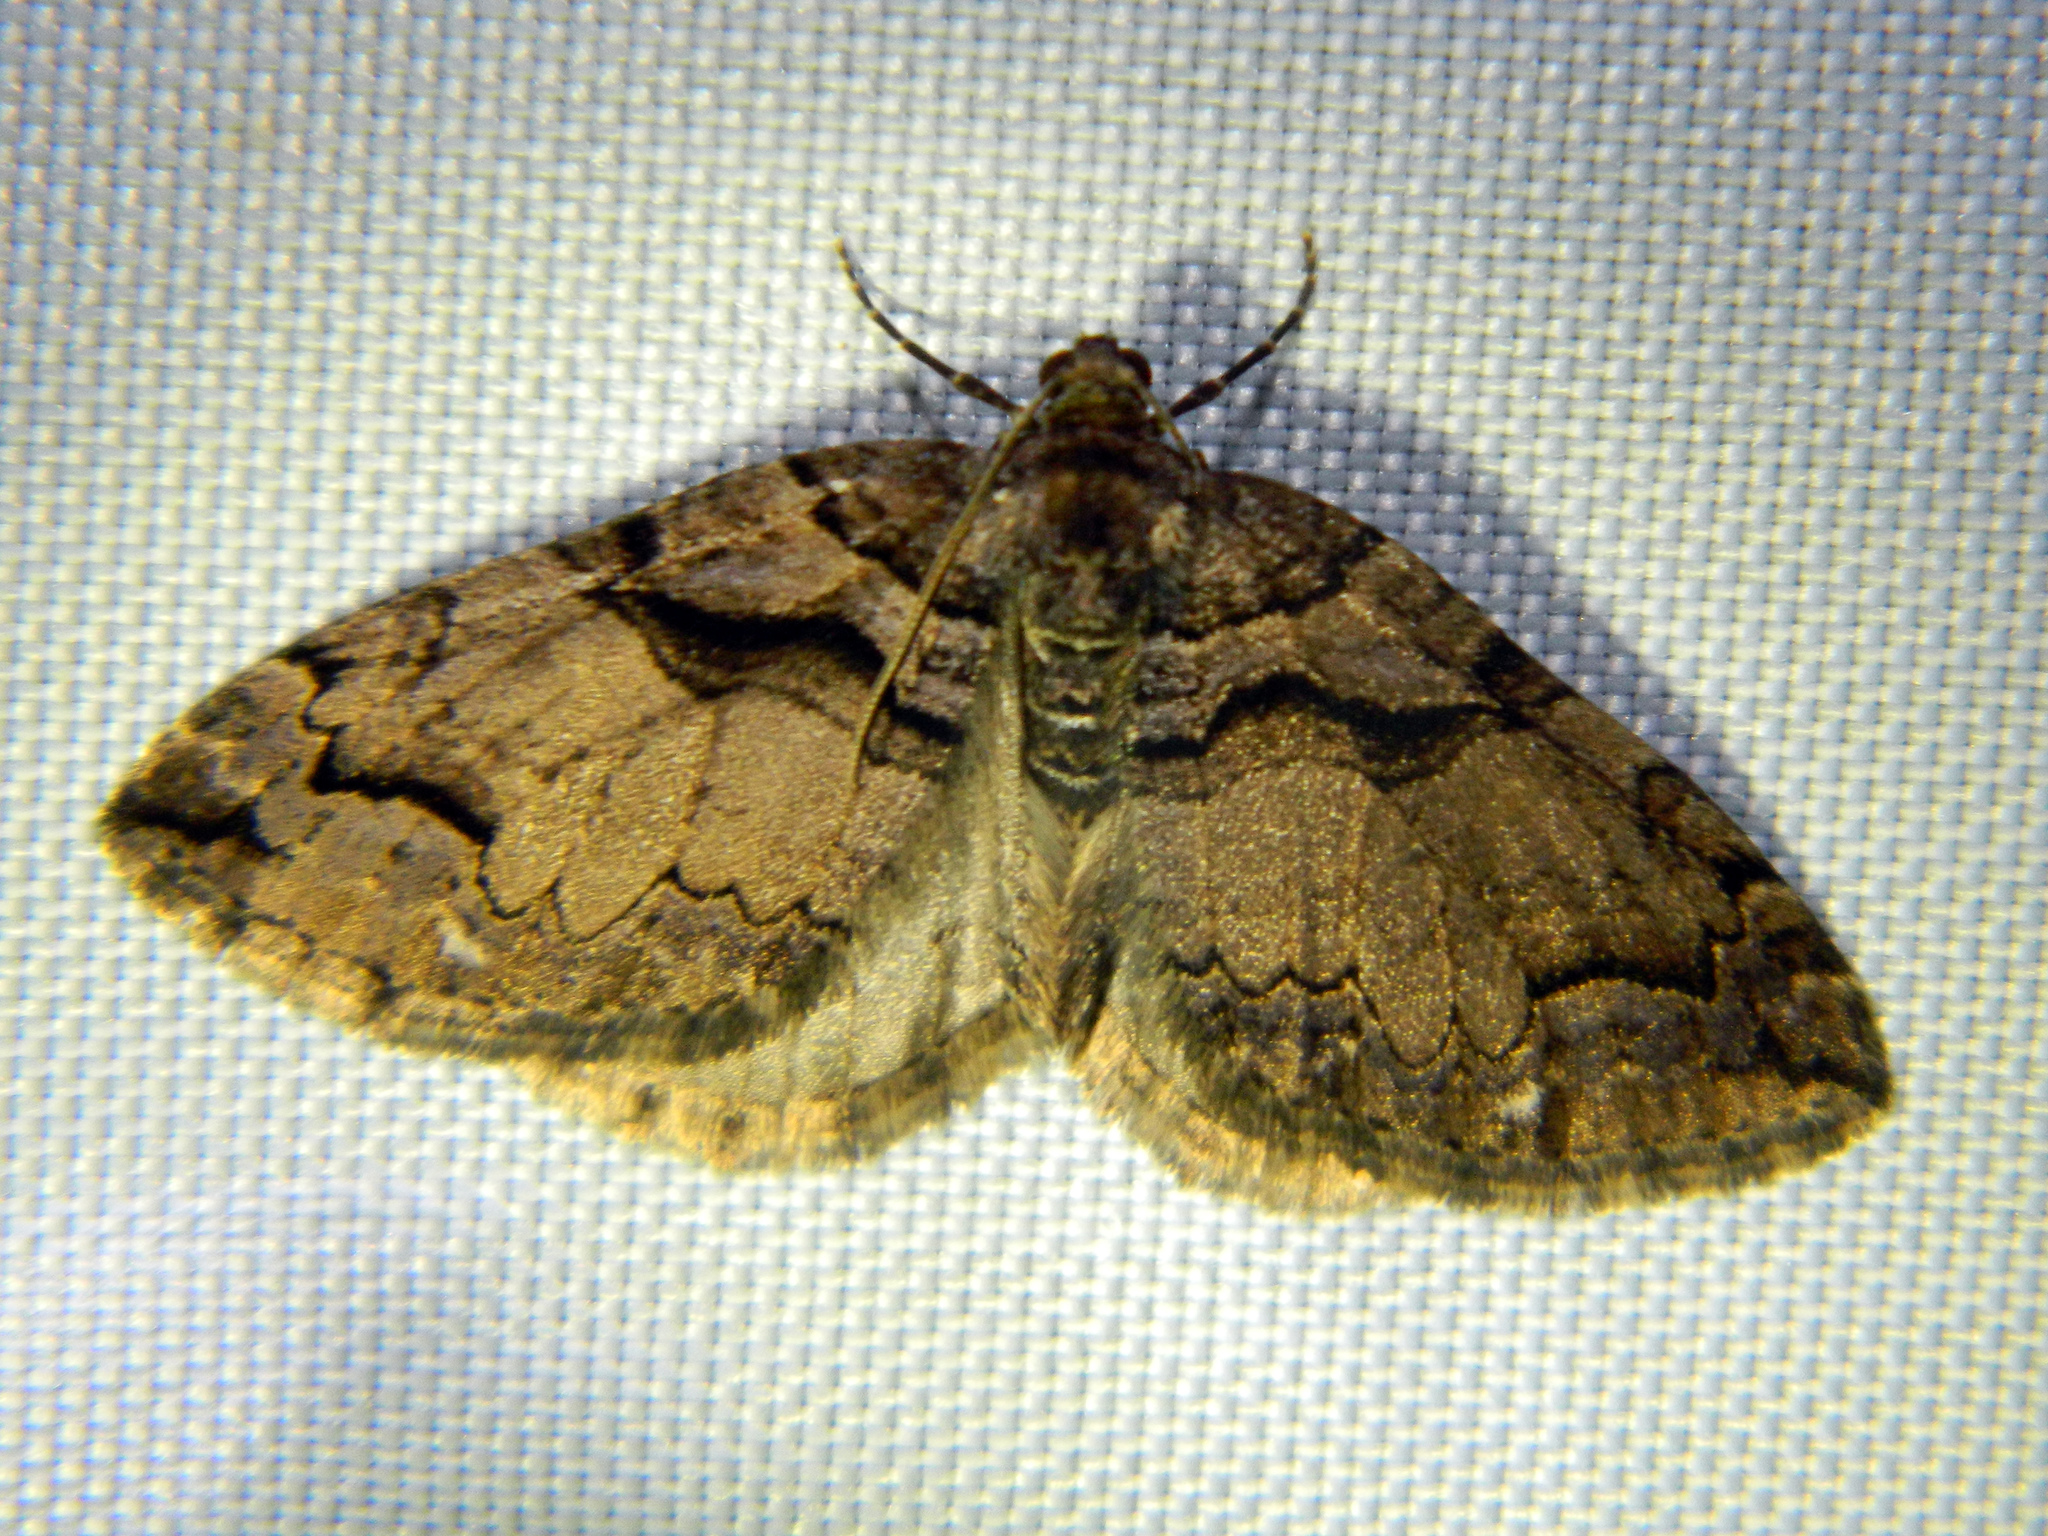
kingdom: Animalia
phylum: Arthropoda
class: Insecta
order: Lepidoptera
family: Geometridae
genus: Anticlea
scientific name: Anticlea vasiliata
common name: Variable carpet
